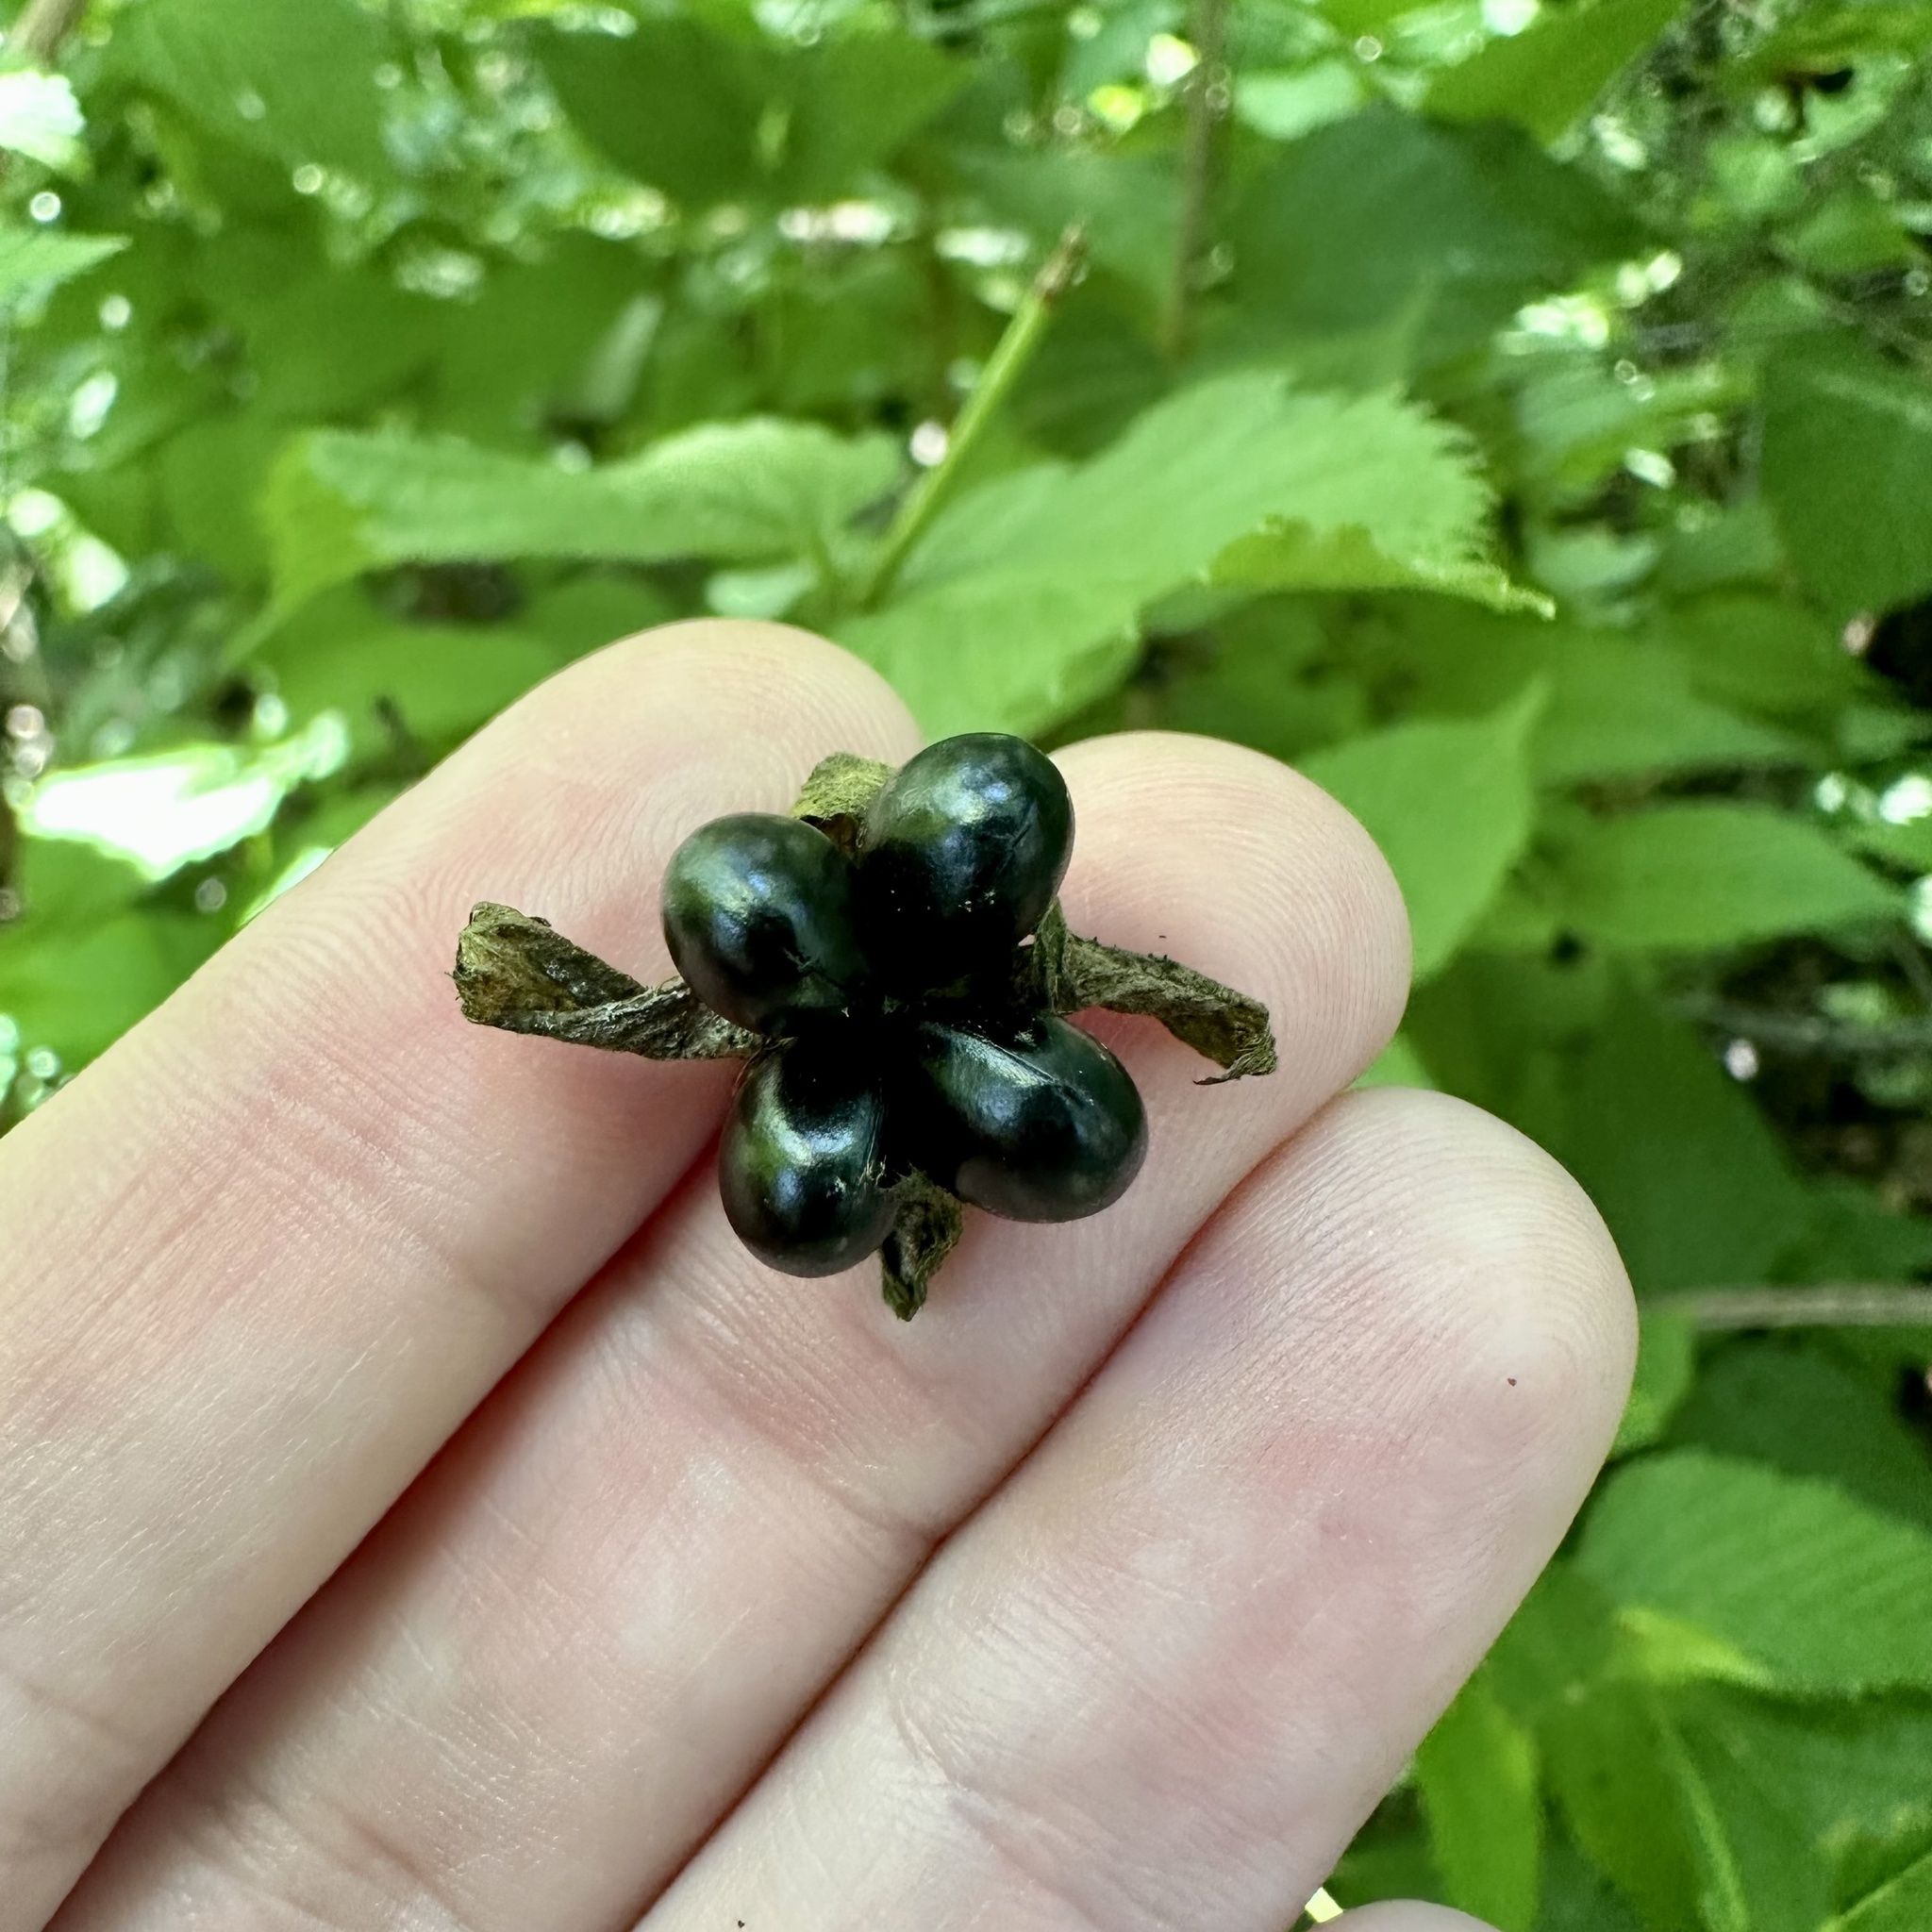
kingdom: Plantae
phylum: Tracheophyta
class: Magnoliopsida
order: Rosales
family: Rosaceae
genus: Rhodotypos
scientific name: Rhodotypos scandens
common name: Jetbead
